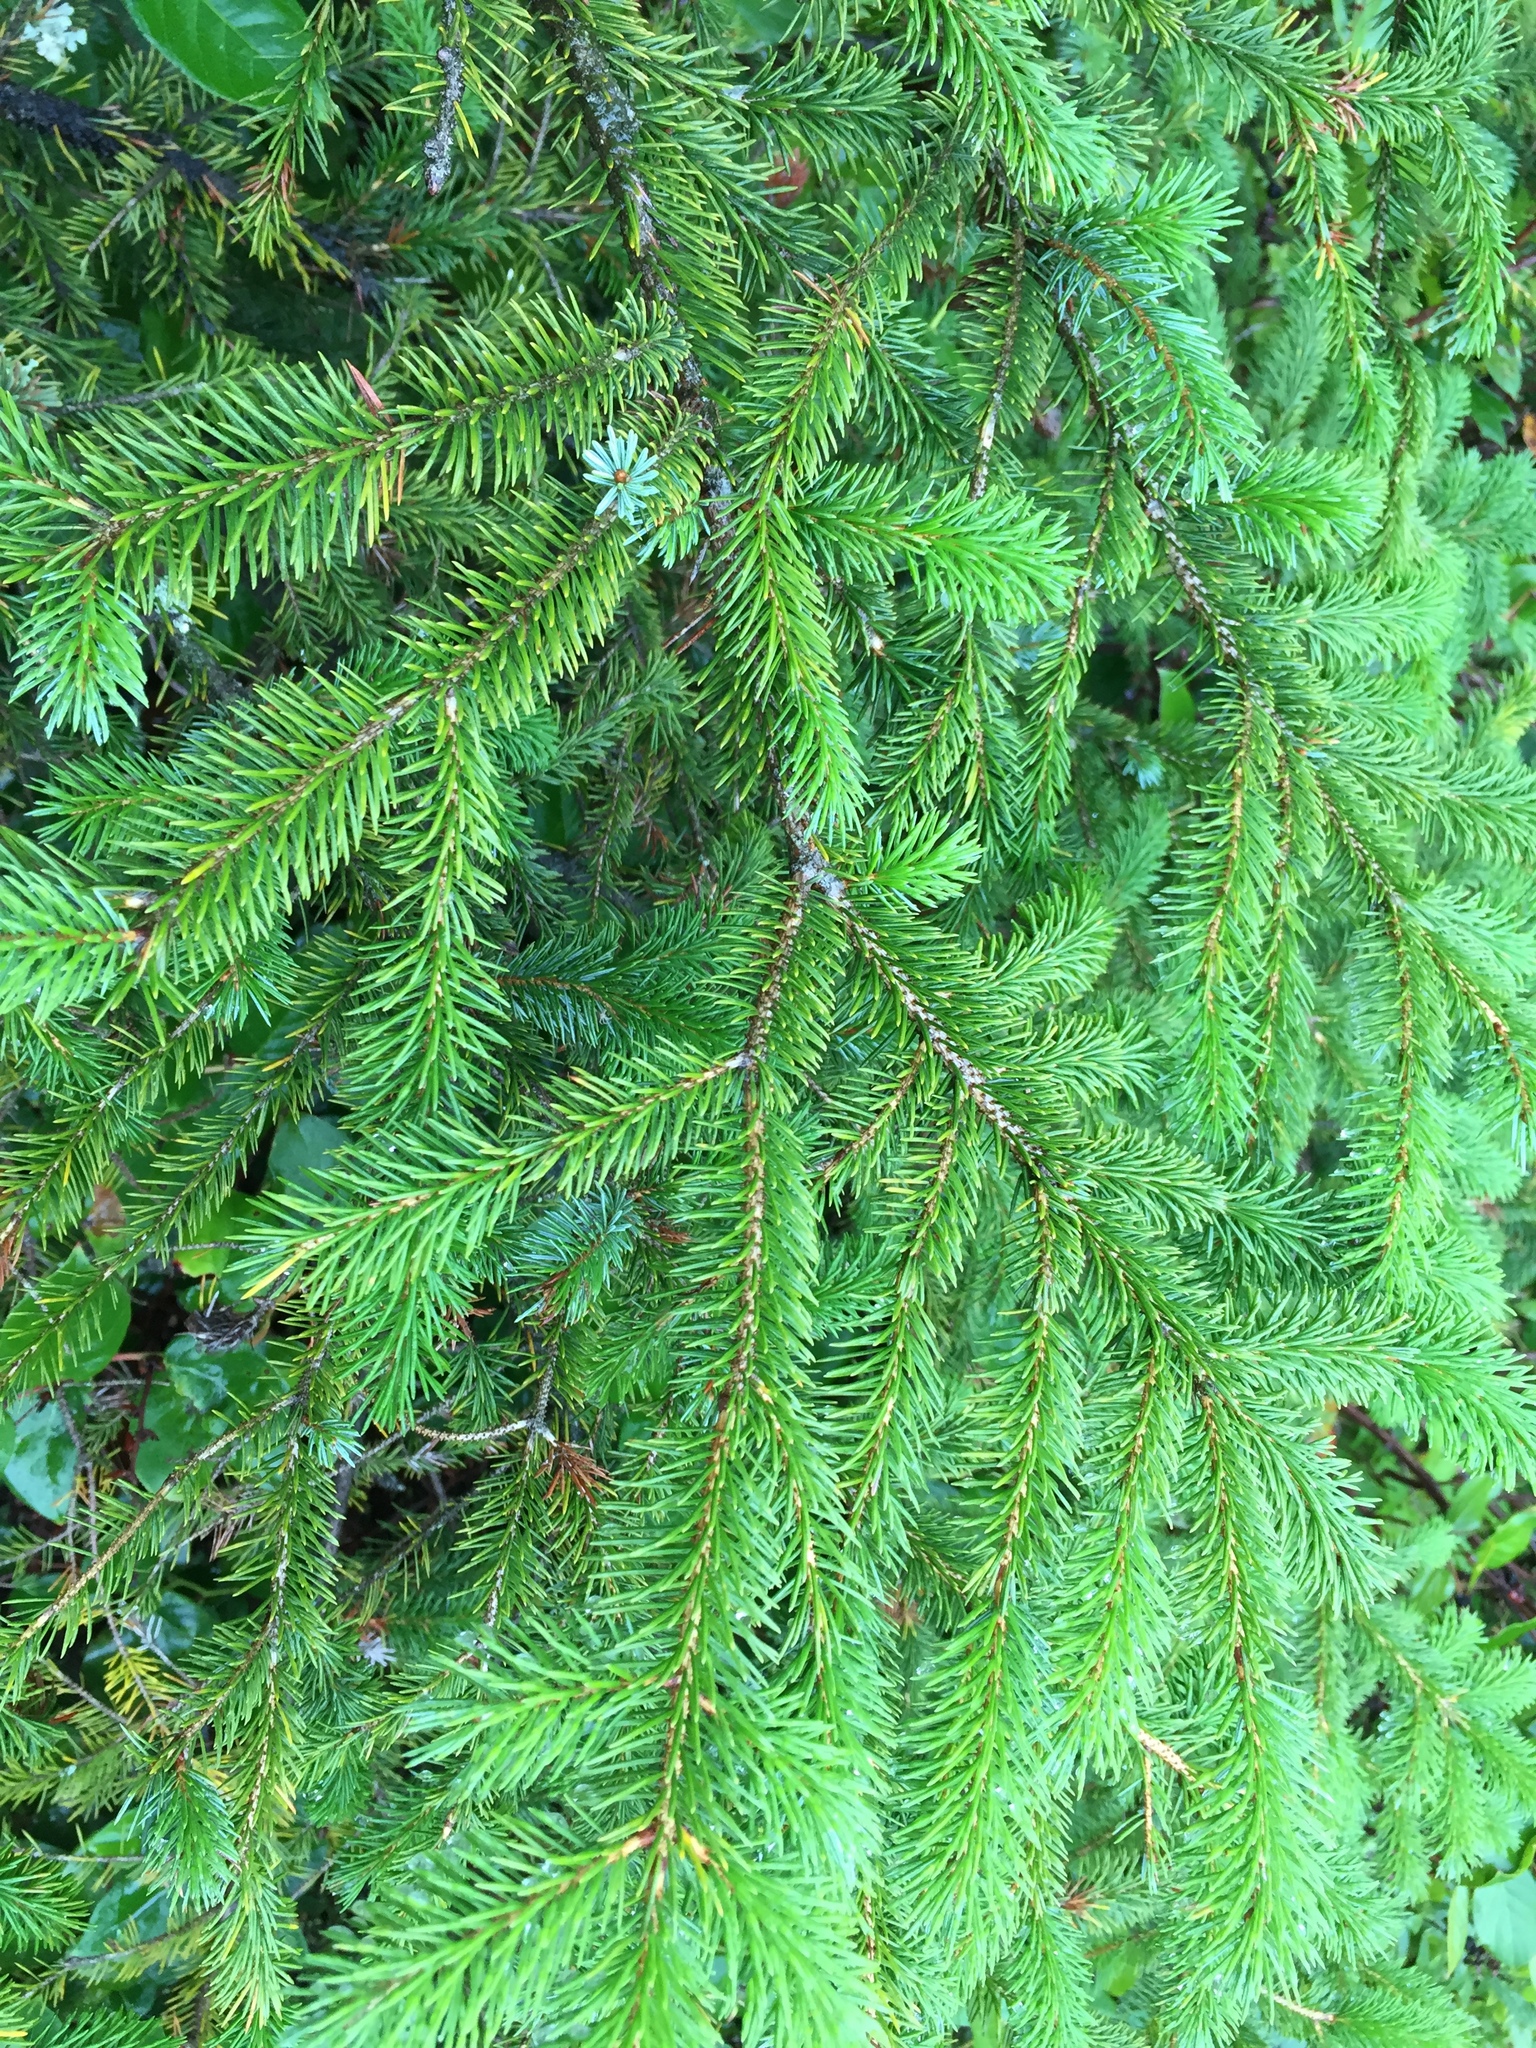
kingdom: Plantae
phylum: Tracheophyta
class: Pinopsida
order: Pinales
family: Pinaceae
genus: Picea
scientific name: Picea sitchensis
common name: Sitka spruce
